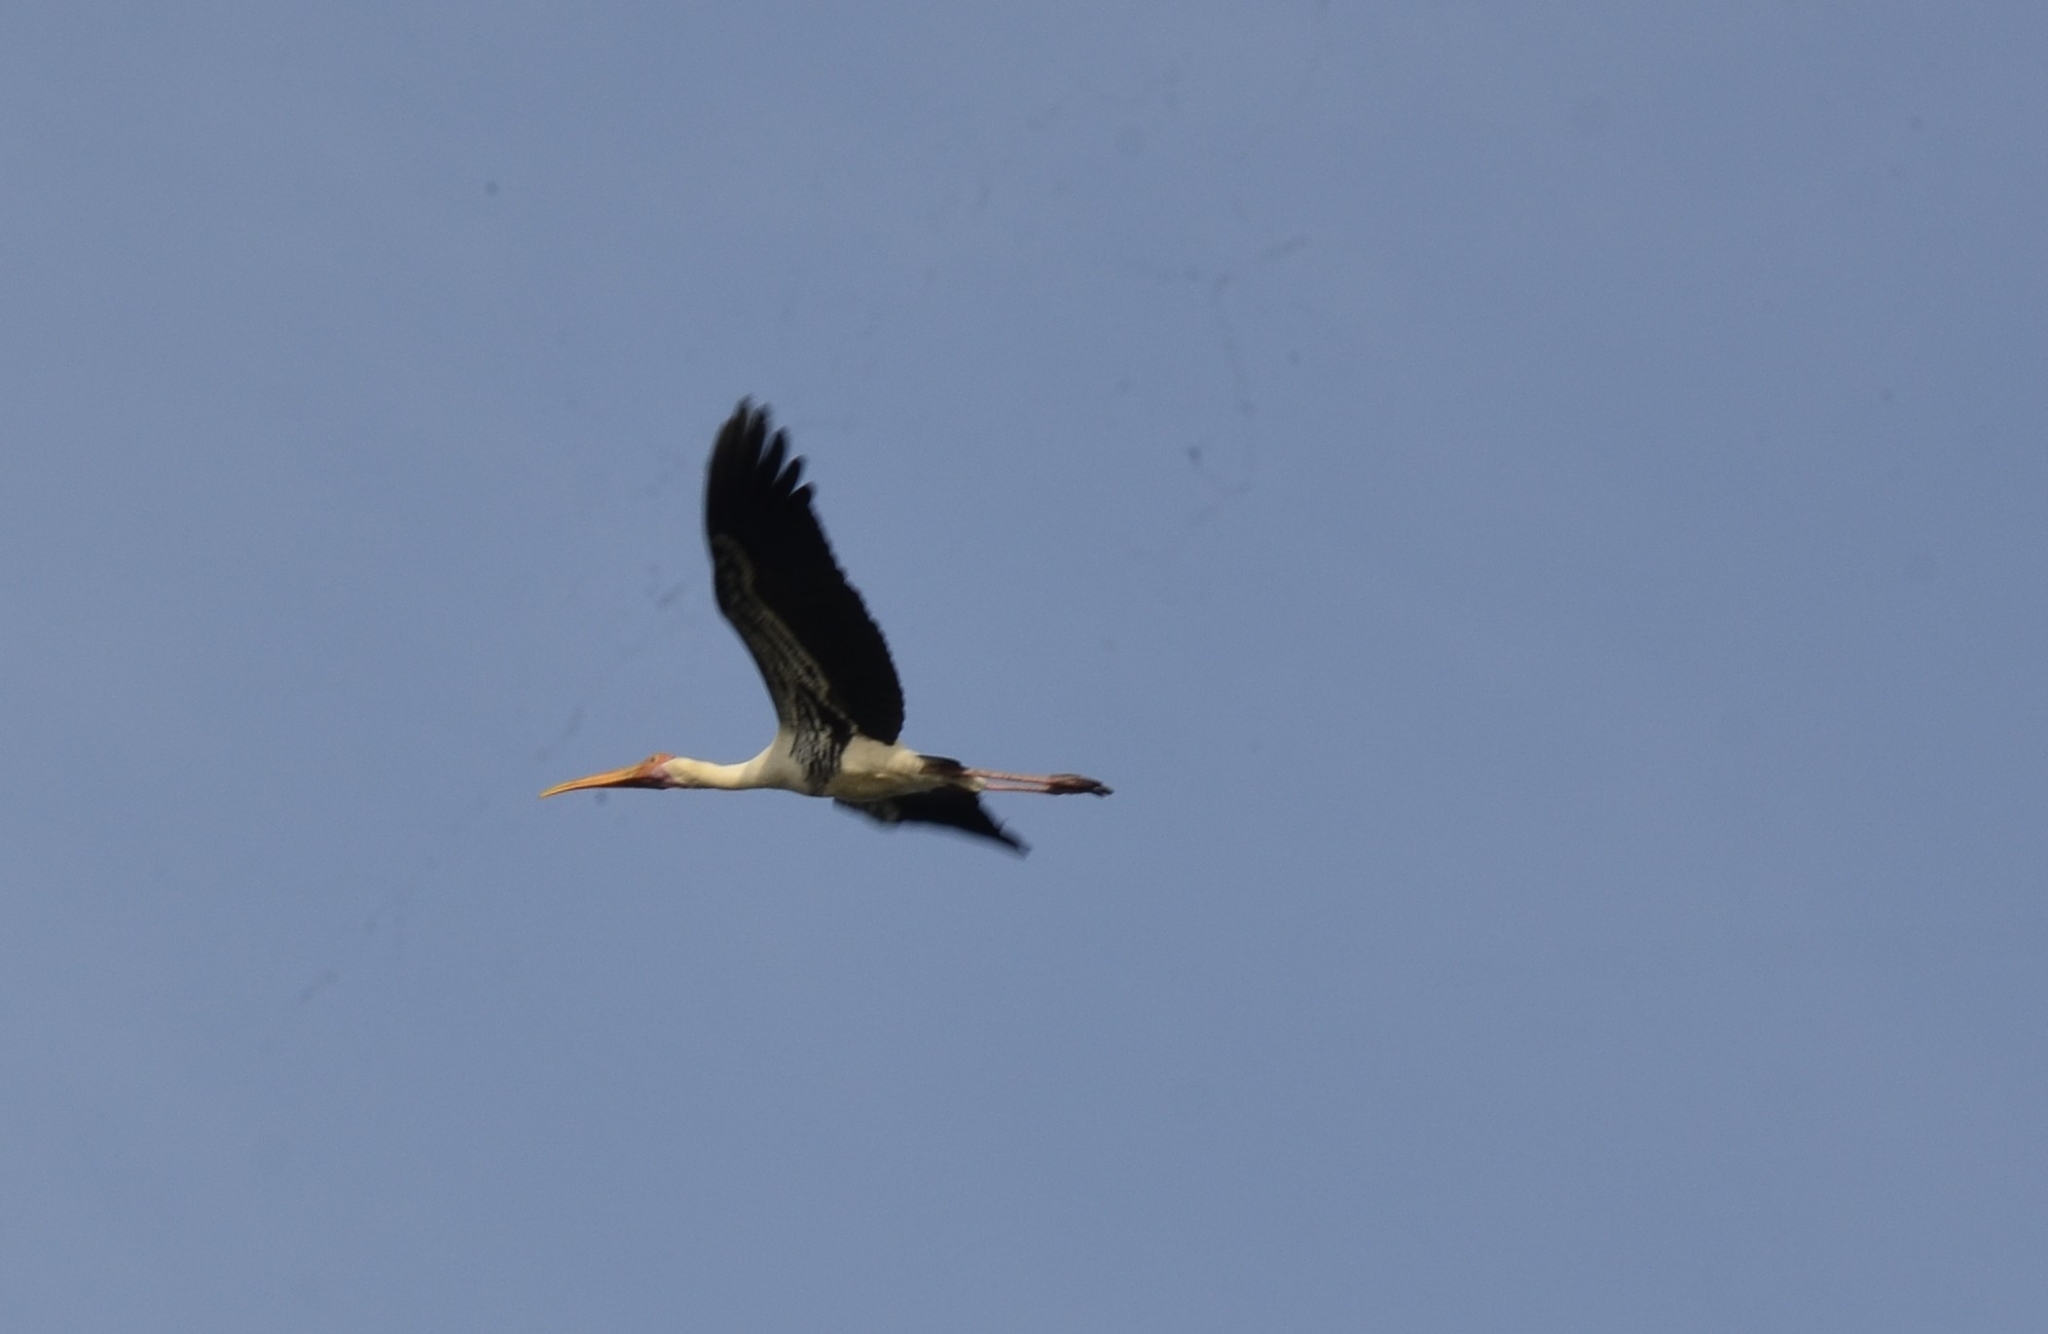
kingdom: Animalia
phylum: Chordata
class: Aves
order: Ciconiiformes
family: Ciconiidae
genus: Mycteria
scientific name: Mycteria leucocephala
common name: Painted stork
